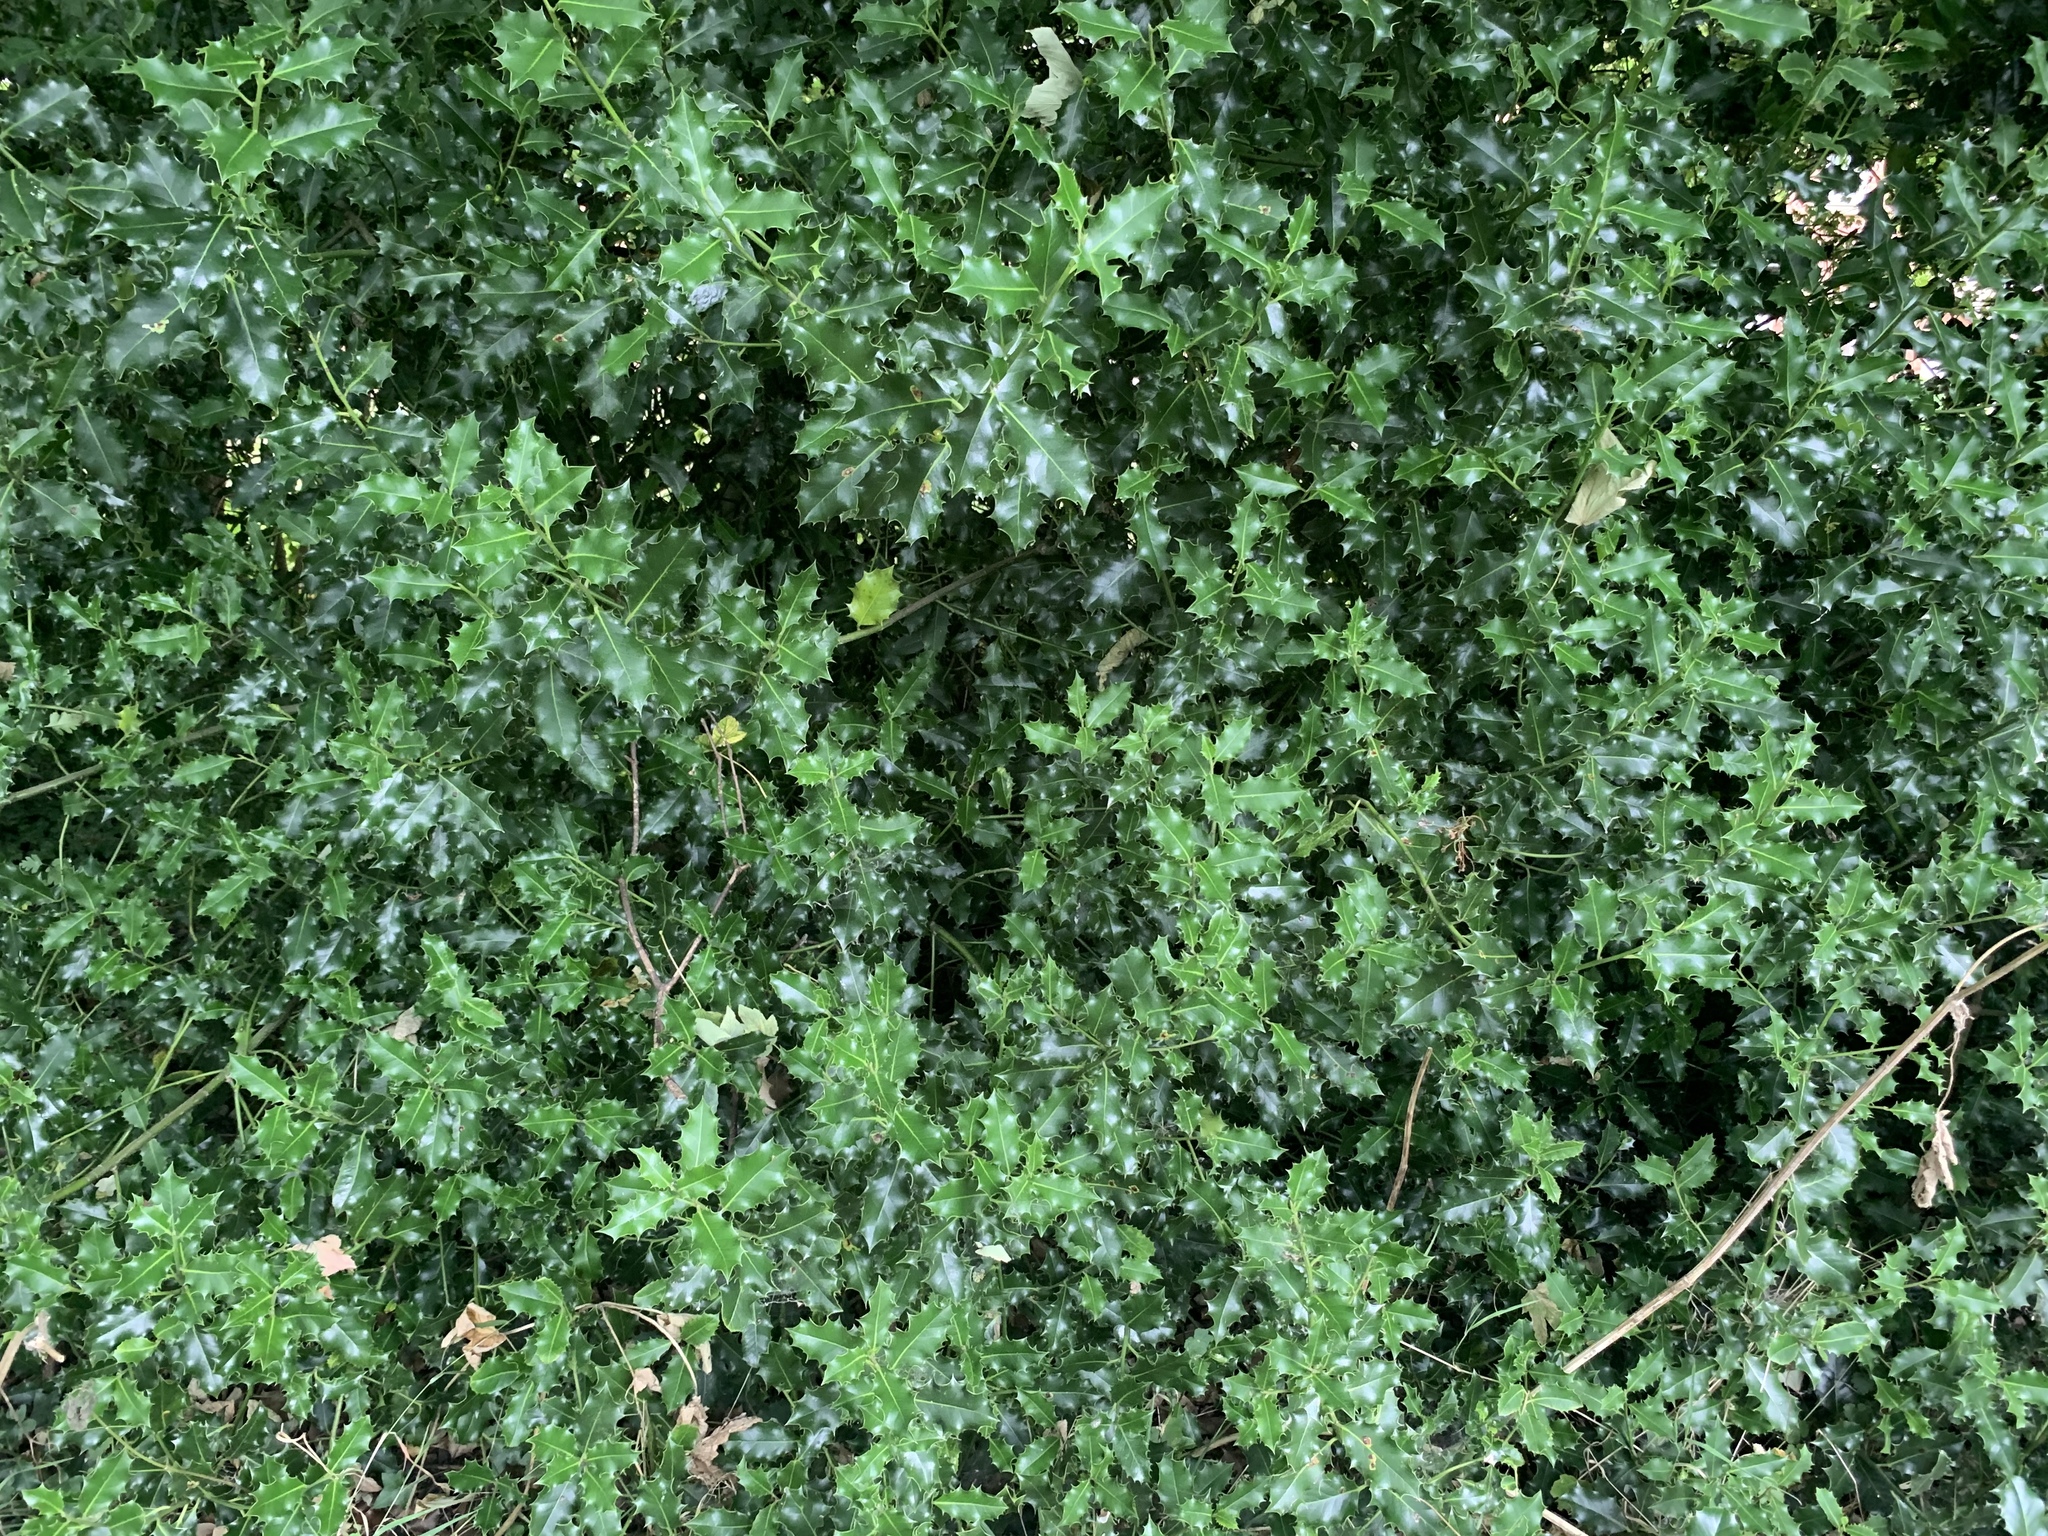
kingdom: Plantae
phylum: Tracheophyta
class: Magnoliopsida
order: Aquifoliales
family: Aquifoliaceae
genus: Ilex
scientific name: Ilex aquifolium
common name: English holly
